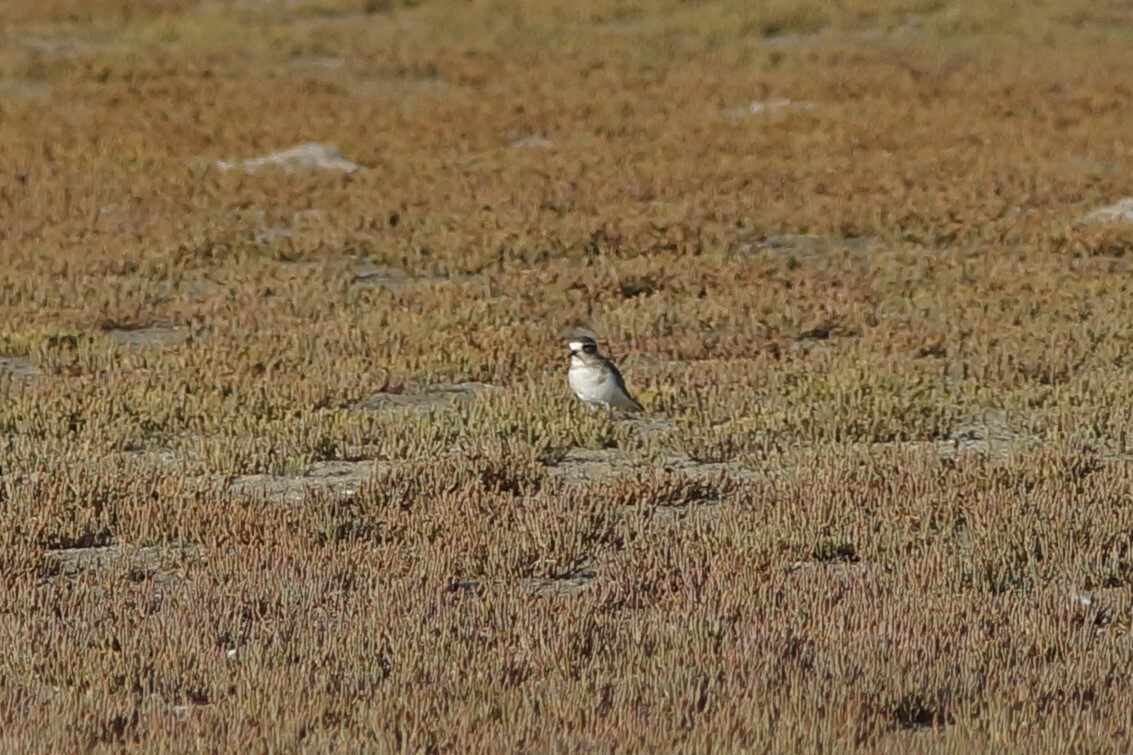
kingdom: Animalia
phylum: Chordata
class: Aves
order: Charadriiformes
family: Charadriidae
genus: Anarhynchus
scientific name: Anarhynchus
